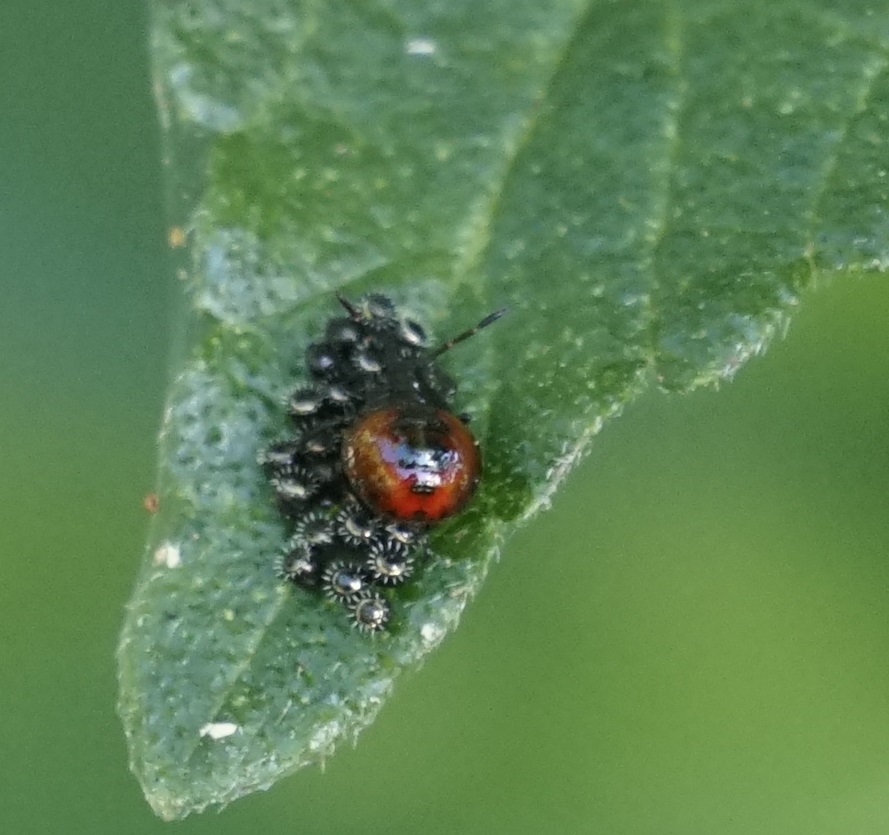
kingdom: Animalia
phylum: Arthropoda
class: Insecta
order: Hemiptera
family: Pentatomidae
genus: Oechalia
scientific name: Oechalia schellenbergii
